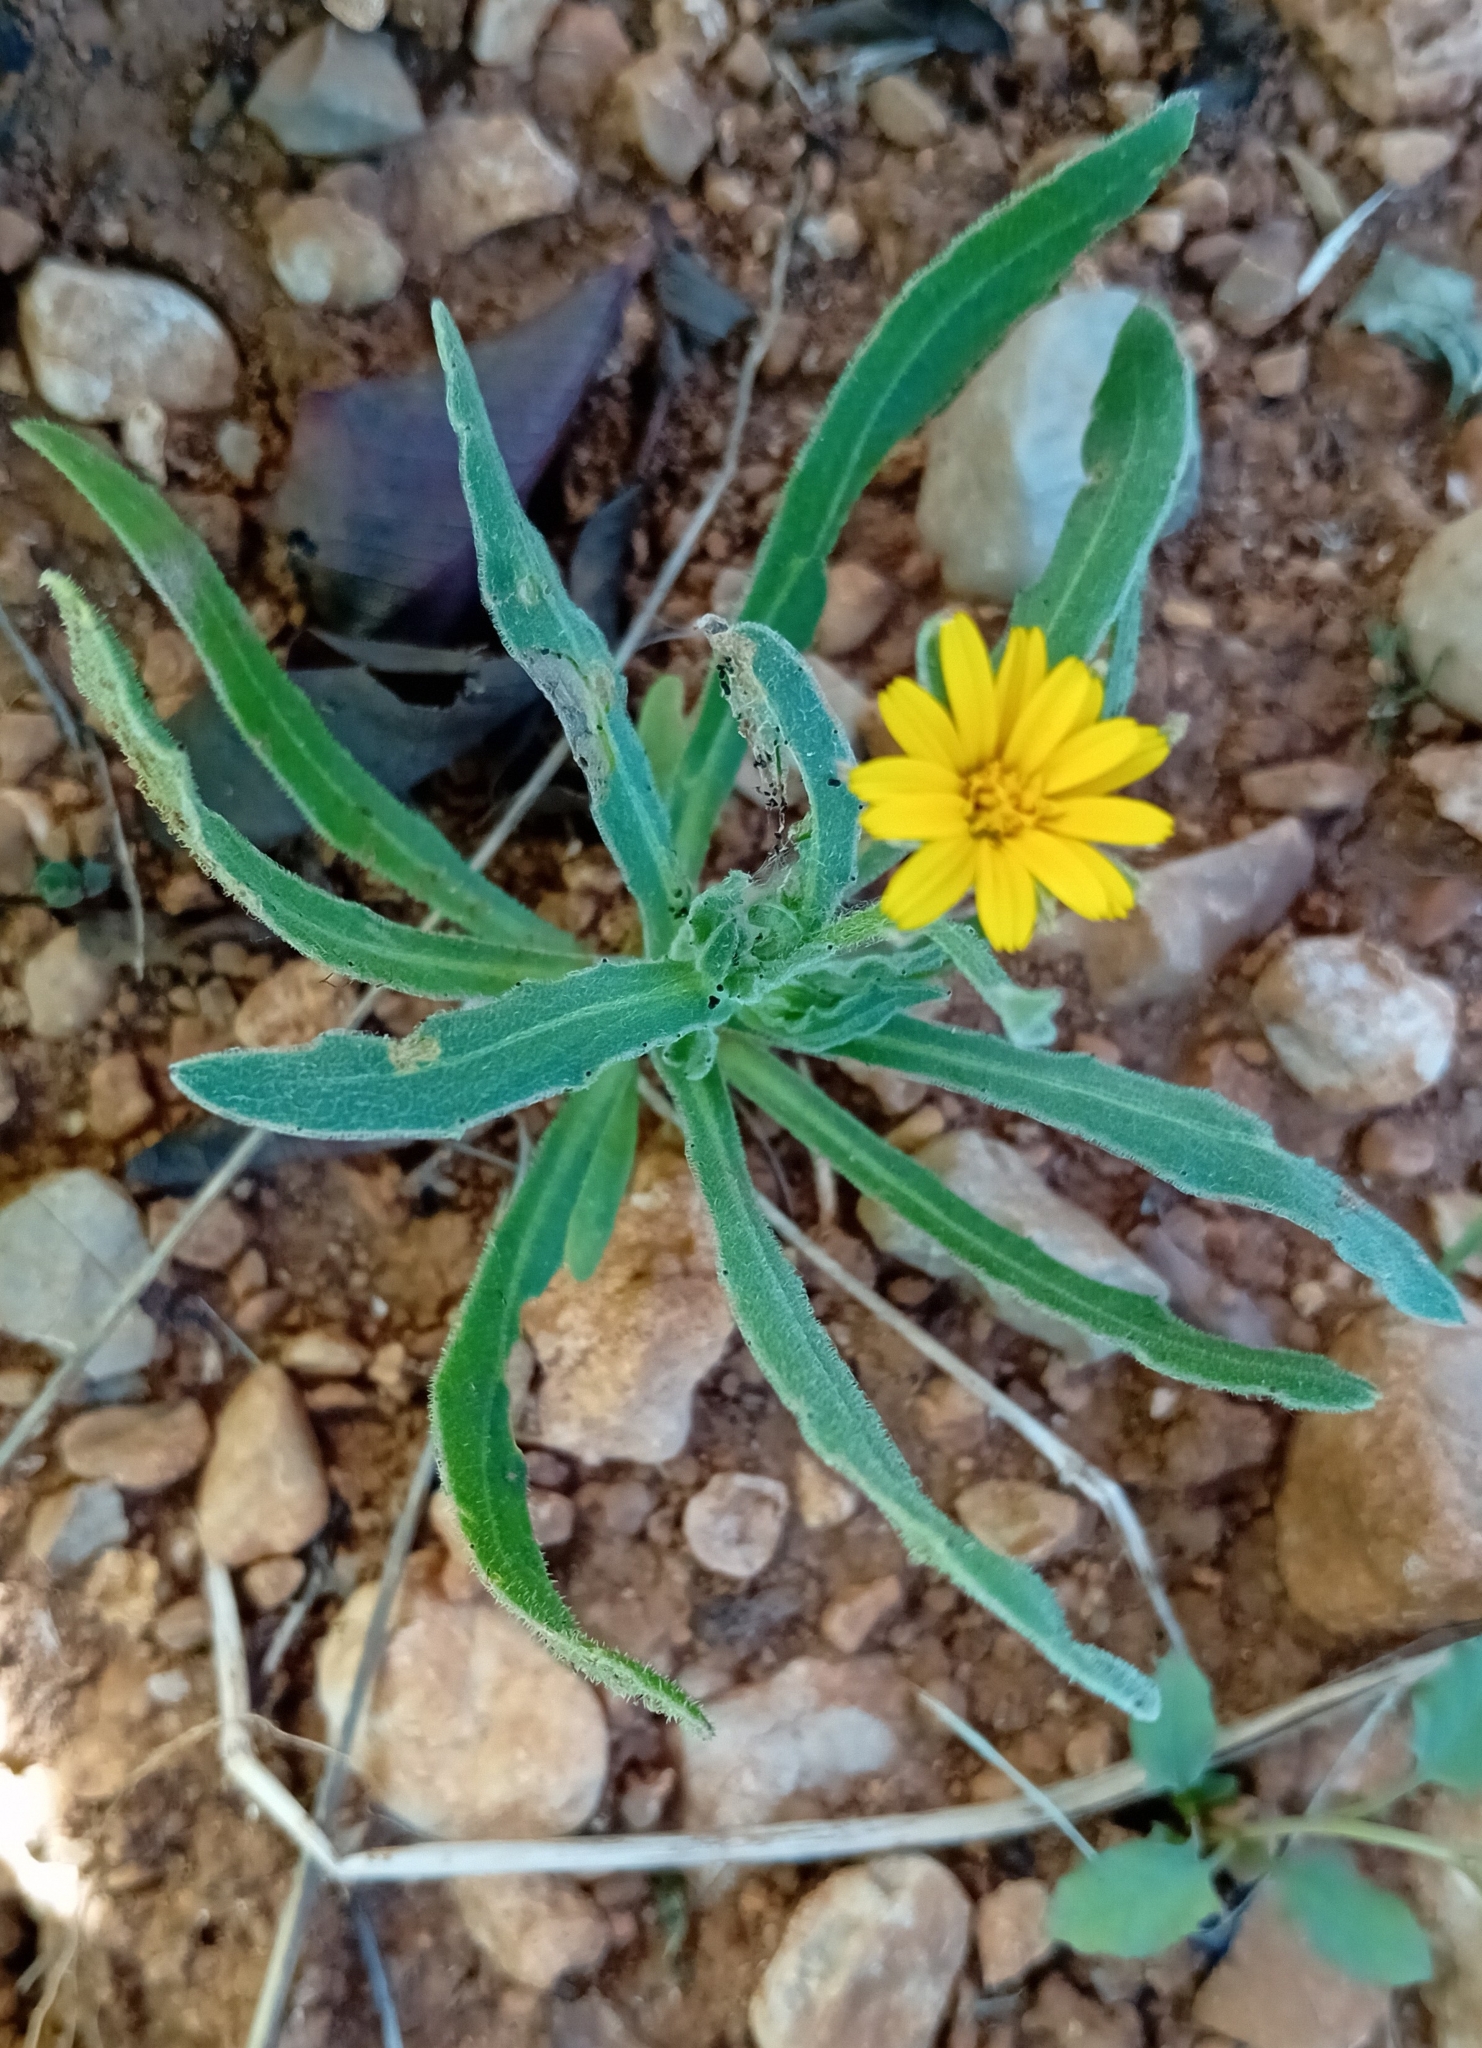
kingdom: Plantae
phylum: Tracheophyta
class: Magnoliopsida
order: Asterales
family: Asteraceae
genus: Calendula
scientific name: Calendula arvensis
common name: Field marigold
